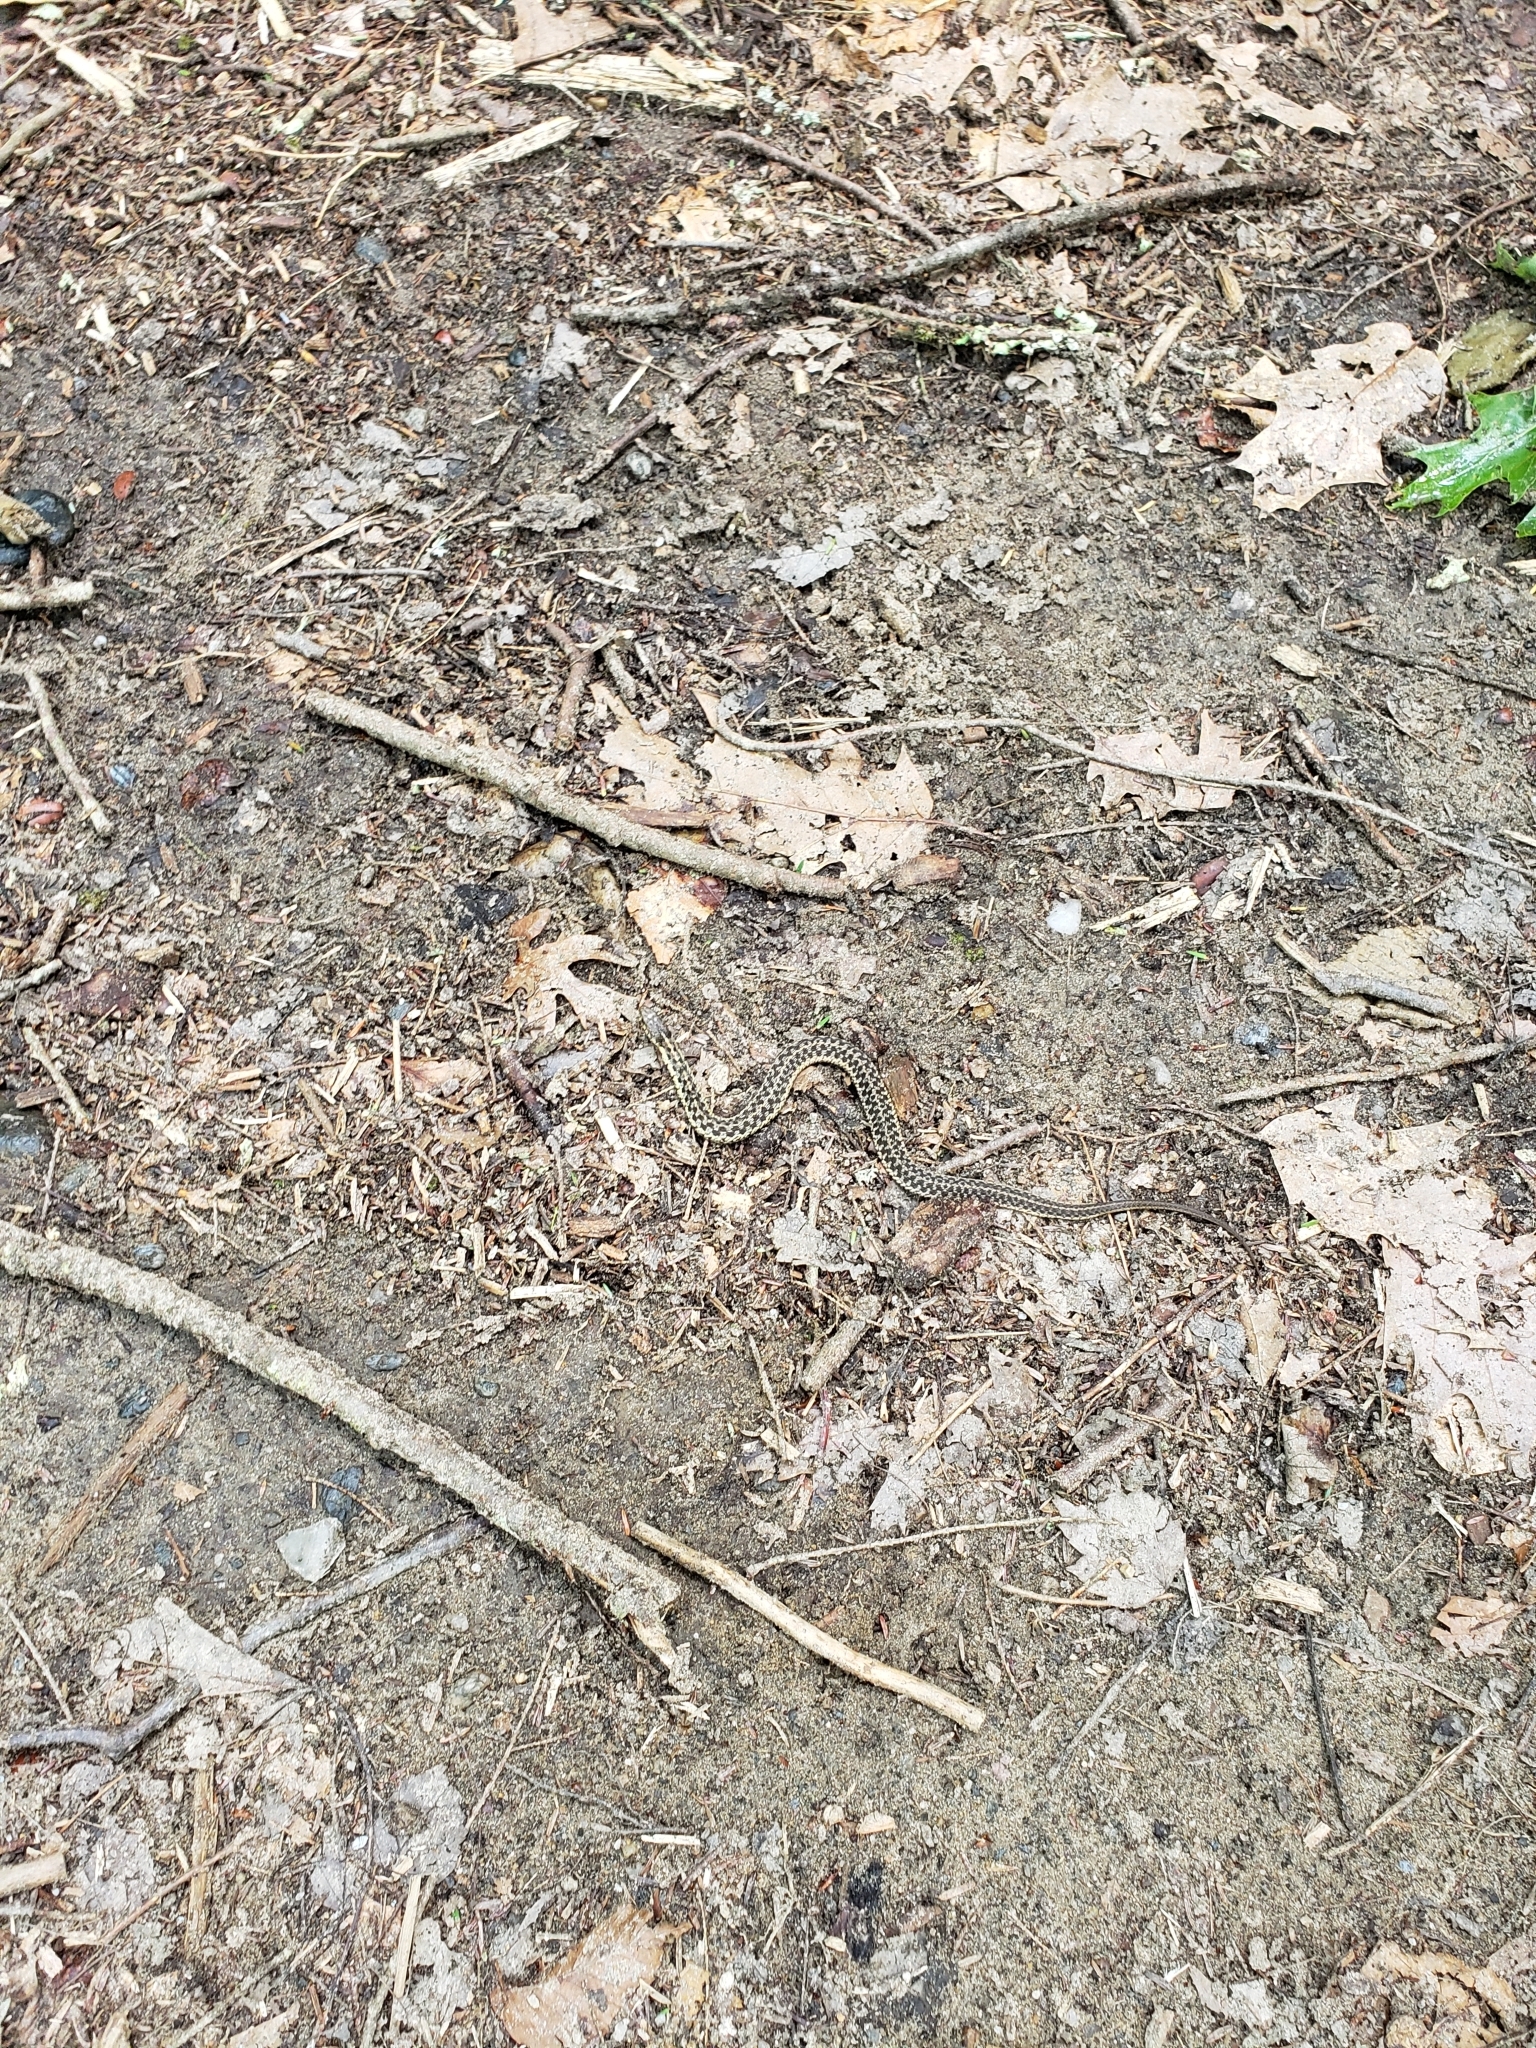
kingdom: Animalia
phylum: Chordata
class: Squamata
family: Colubridae
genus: Thamnophis
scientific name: Thamnophis sirtalis
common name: Common garter snake
